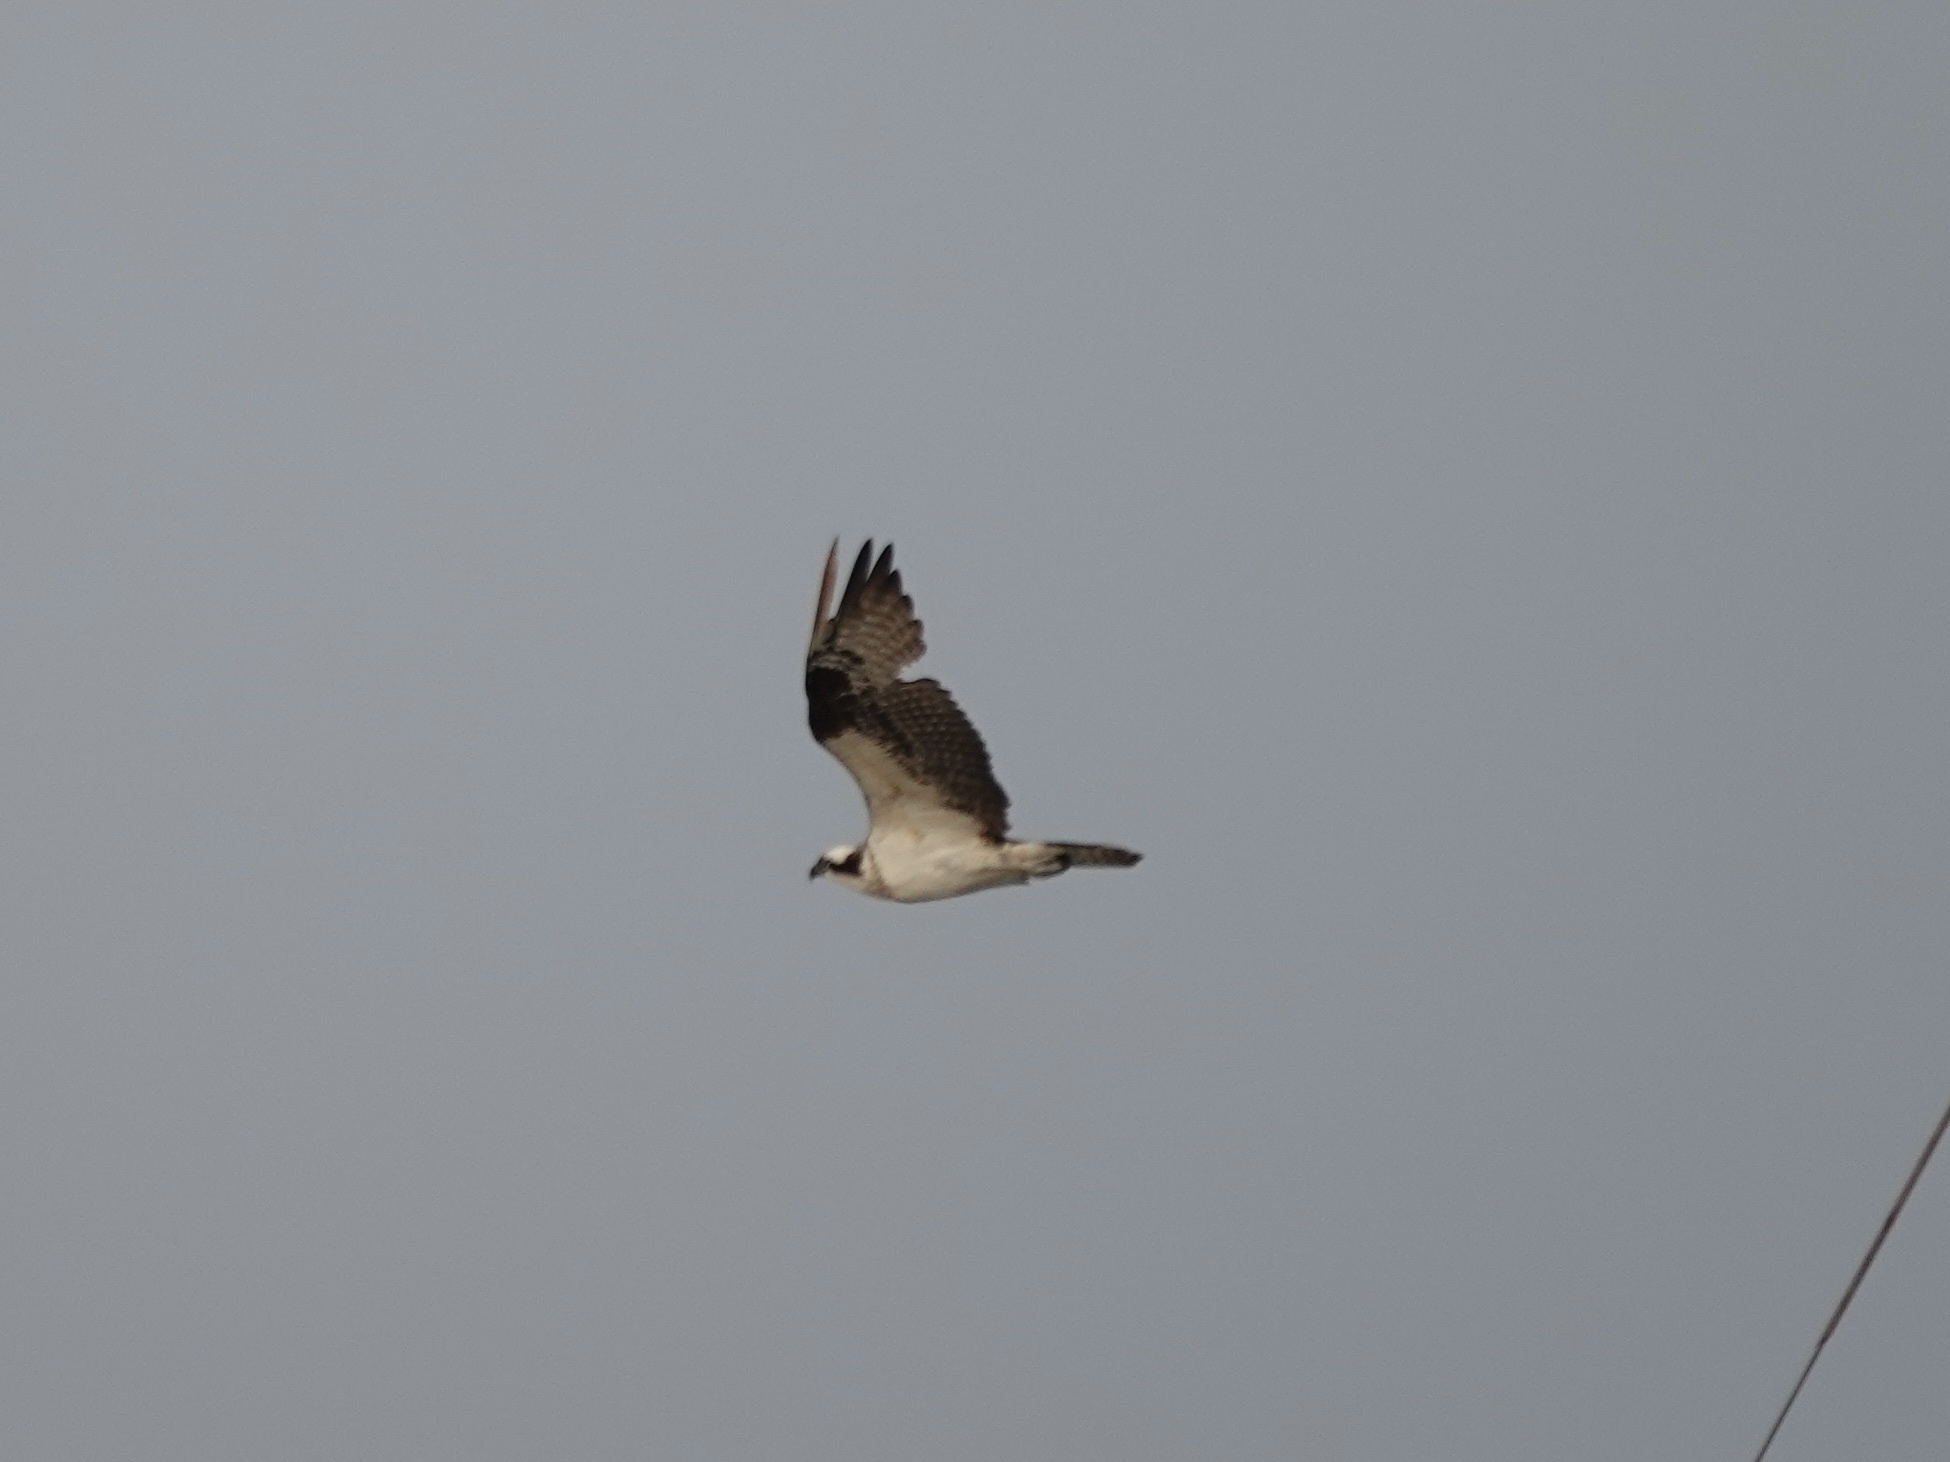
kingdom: Animalia
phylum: Chordata
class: Aves
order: Accipitriformes
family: Pandionidae
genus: Pandion
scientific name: Pandion haliaetus
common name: Osprey
